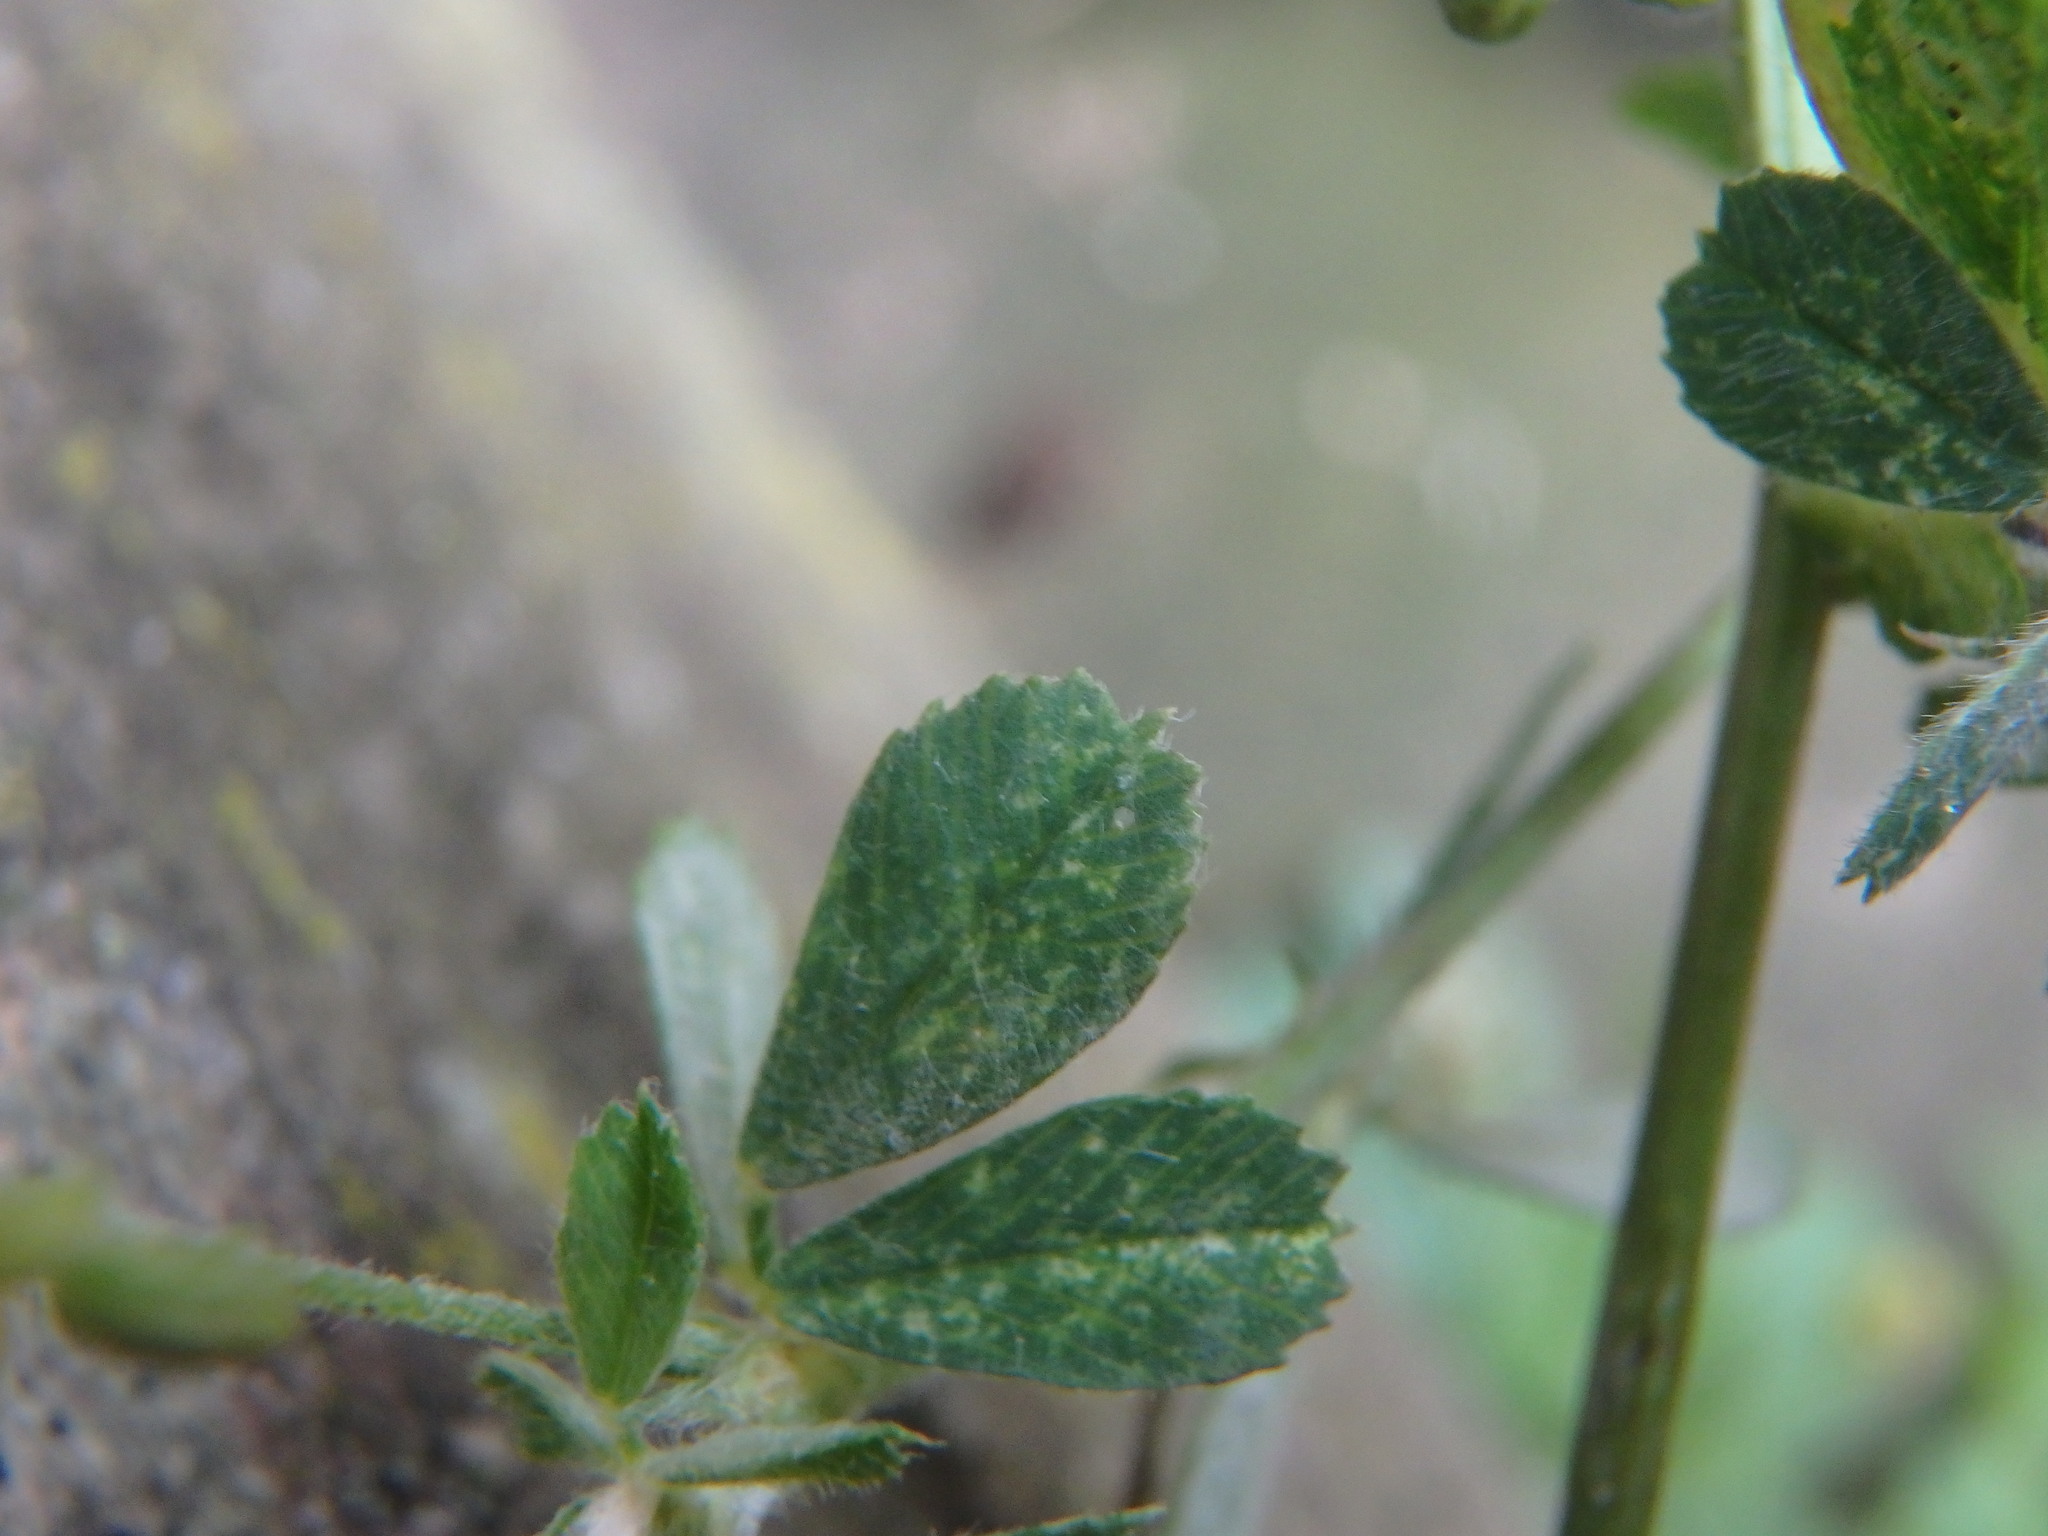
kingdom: Plantae
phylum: Tracheophyta
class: Magnoliopsida
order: Fabales
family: Fabaceae
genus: Medicago
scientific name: Medicago lupulina
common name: Black medick
